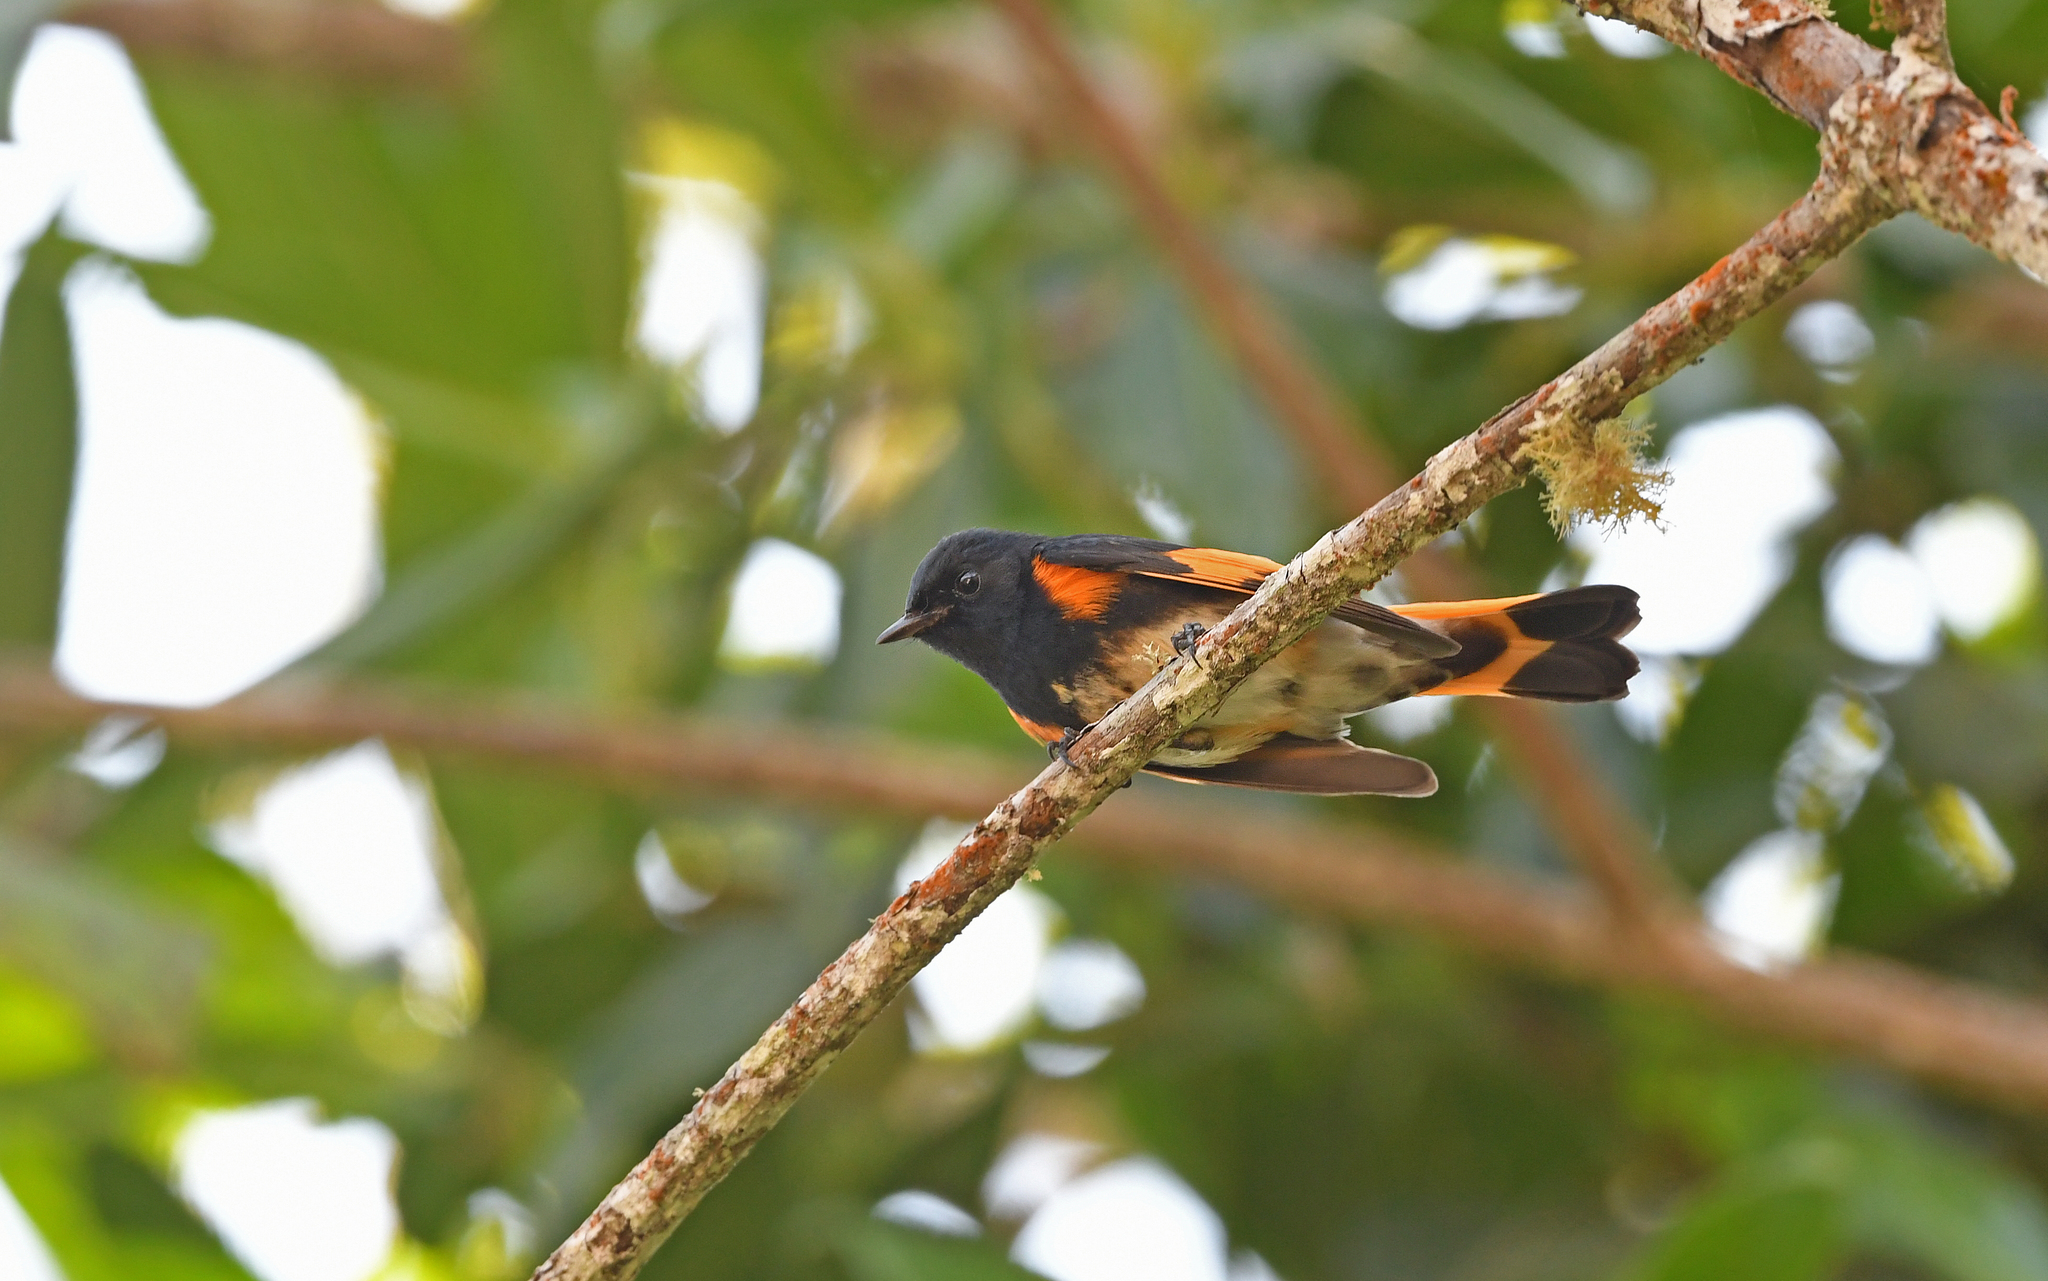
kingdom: Animalia
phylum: Chordata
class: Aves
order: Passeriformes
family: Parulidae
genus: Setophaga
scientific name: Setophaga ruticilla
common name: American redstart
